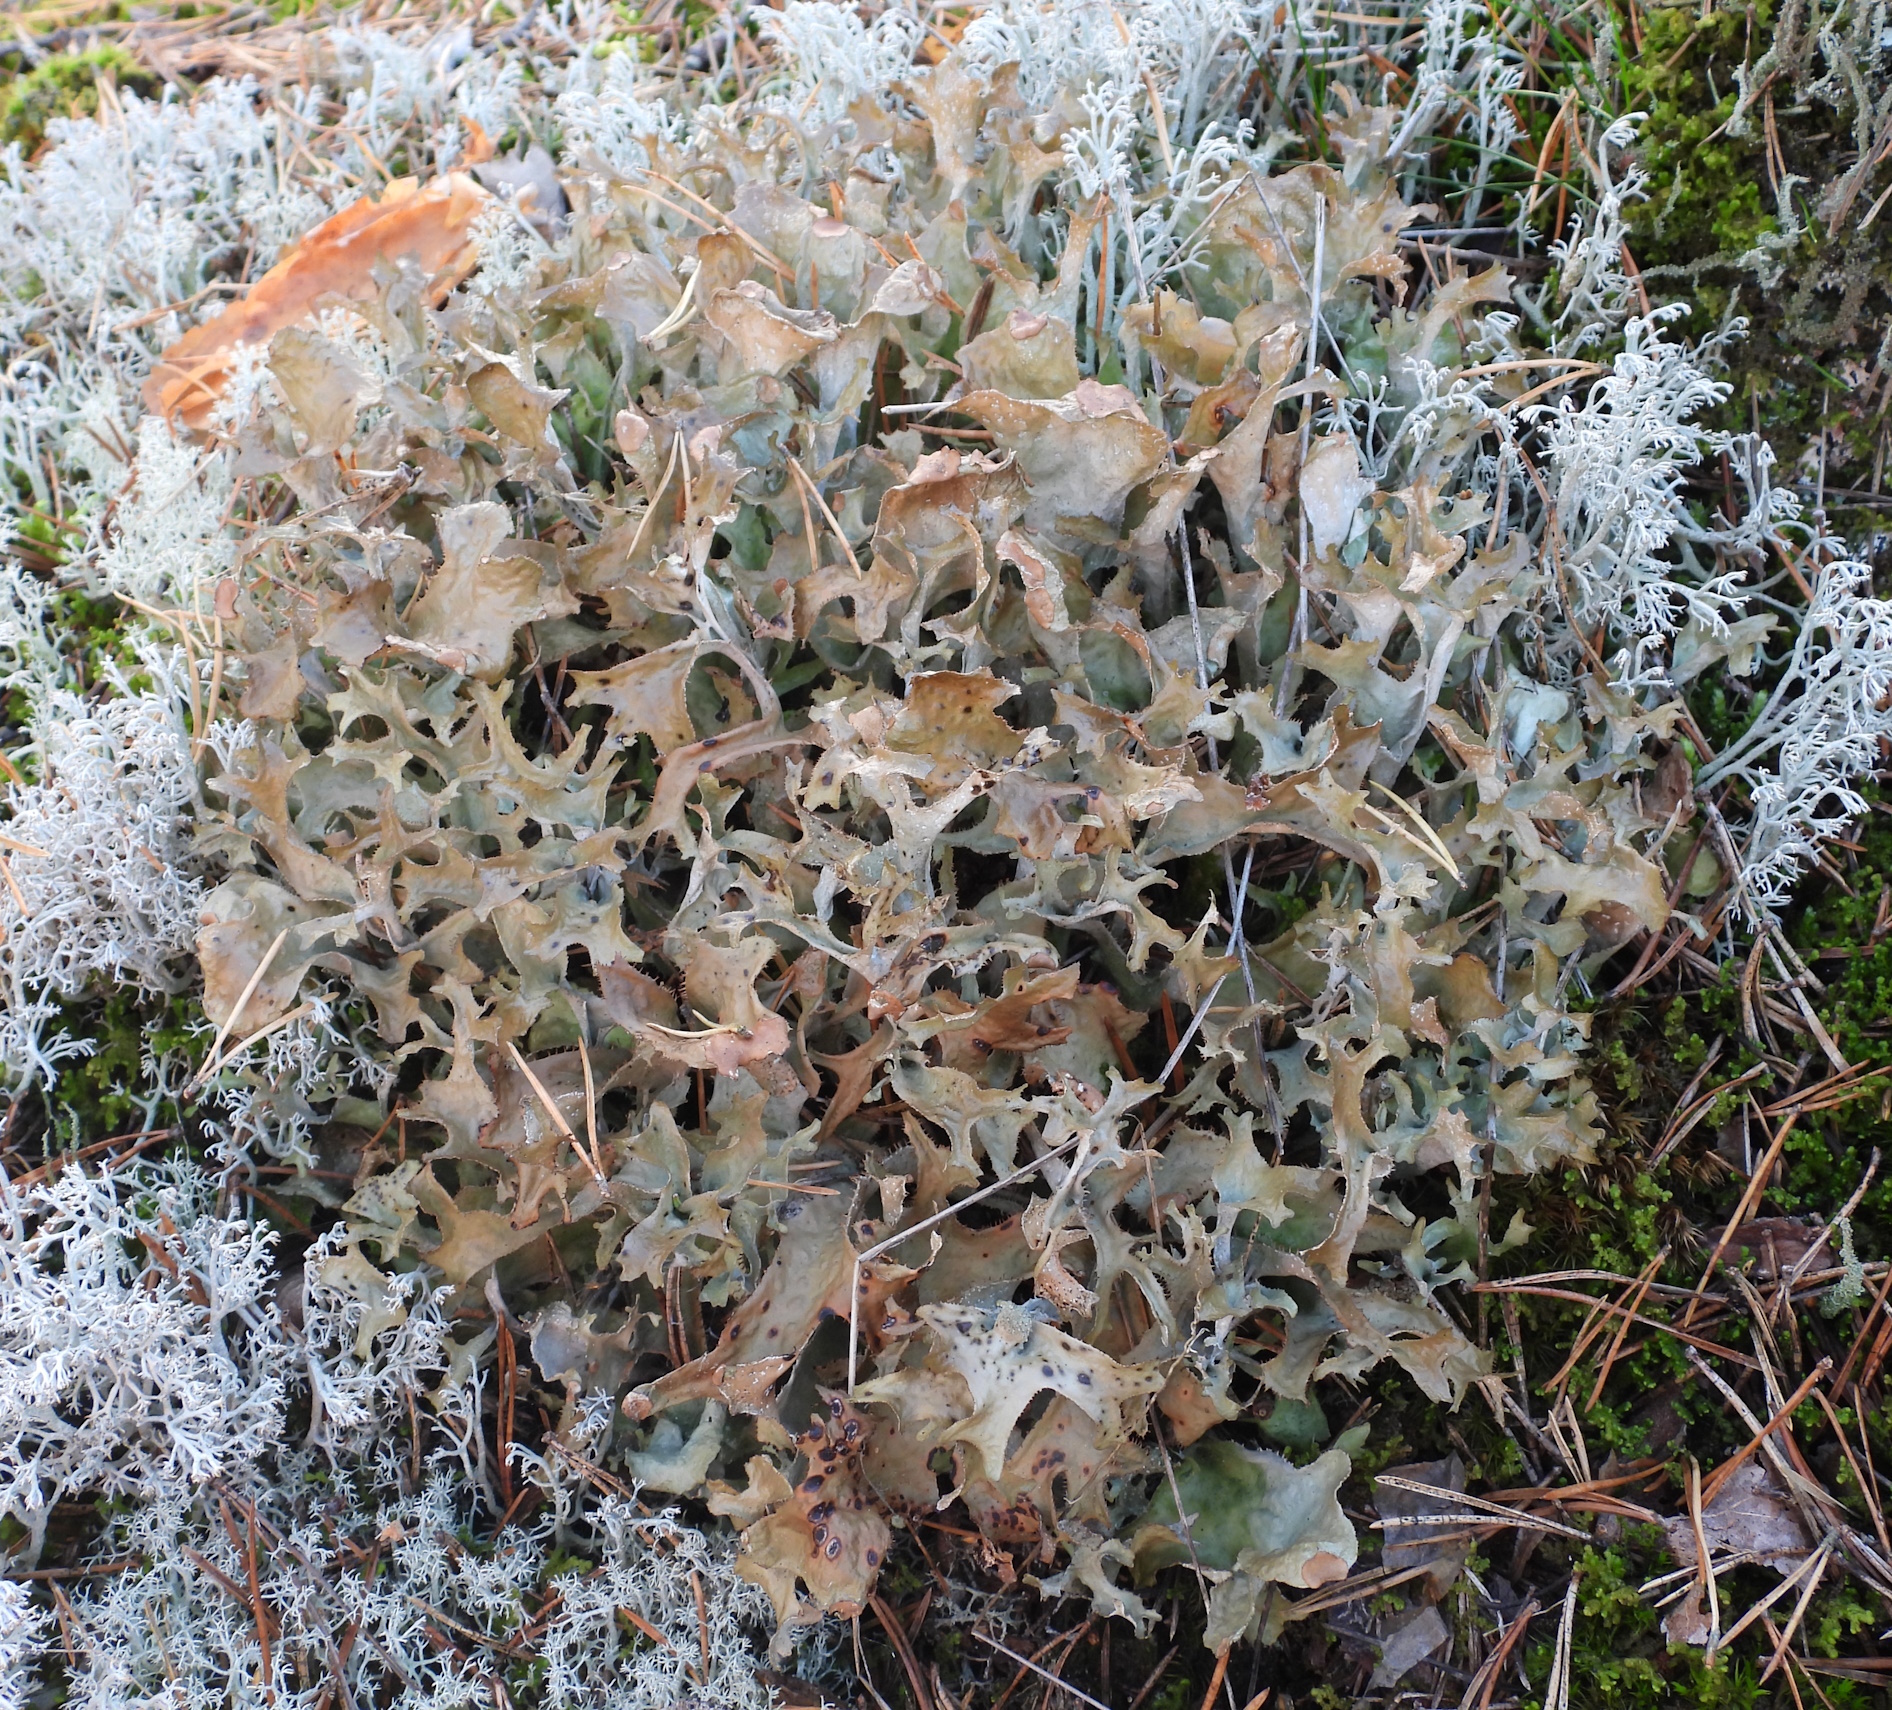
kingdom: Fungi
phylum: Ascomycota
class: Lecanoromycetes
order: Lecanorales
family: Parmeliaceae
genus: Cetraria
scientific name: Cetraria islandica
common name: Iceland lichen
